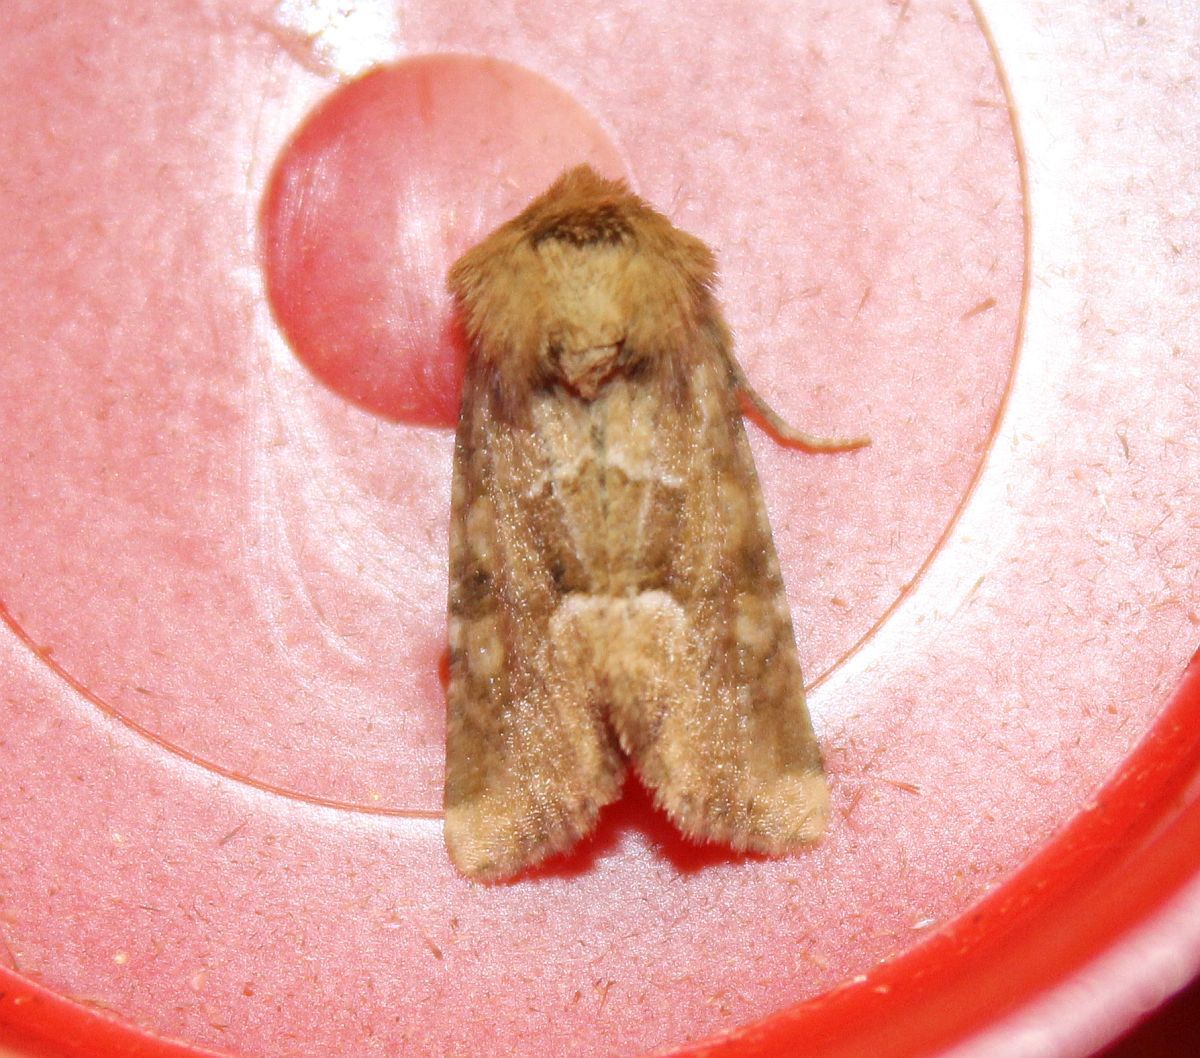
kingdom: Animalia
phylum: Arthropoda
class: Insecta
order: Lepidoptera
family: Noctuidae
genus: Oligia
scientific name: Oligia fasciuncula
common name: Middle-barred minor
